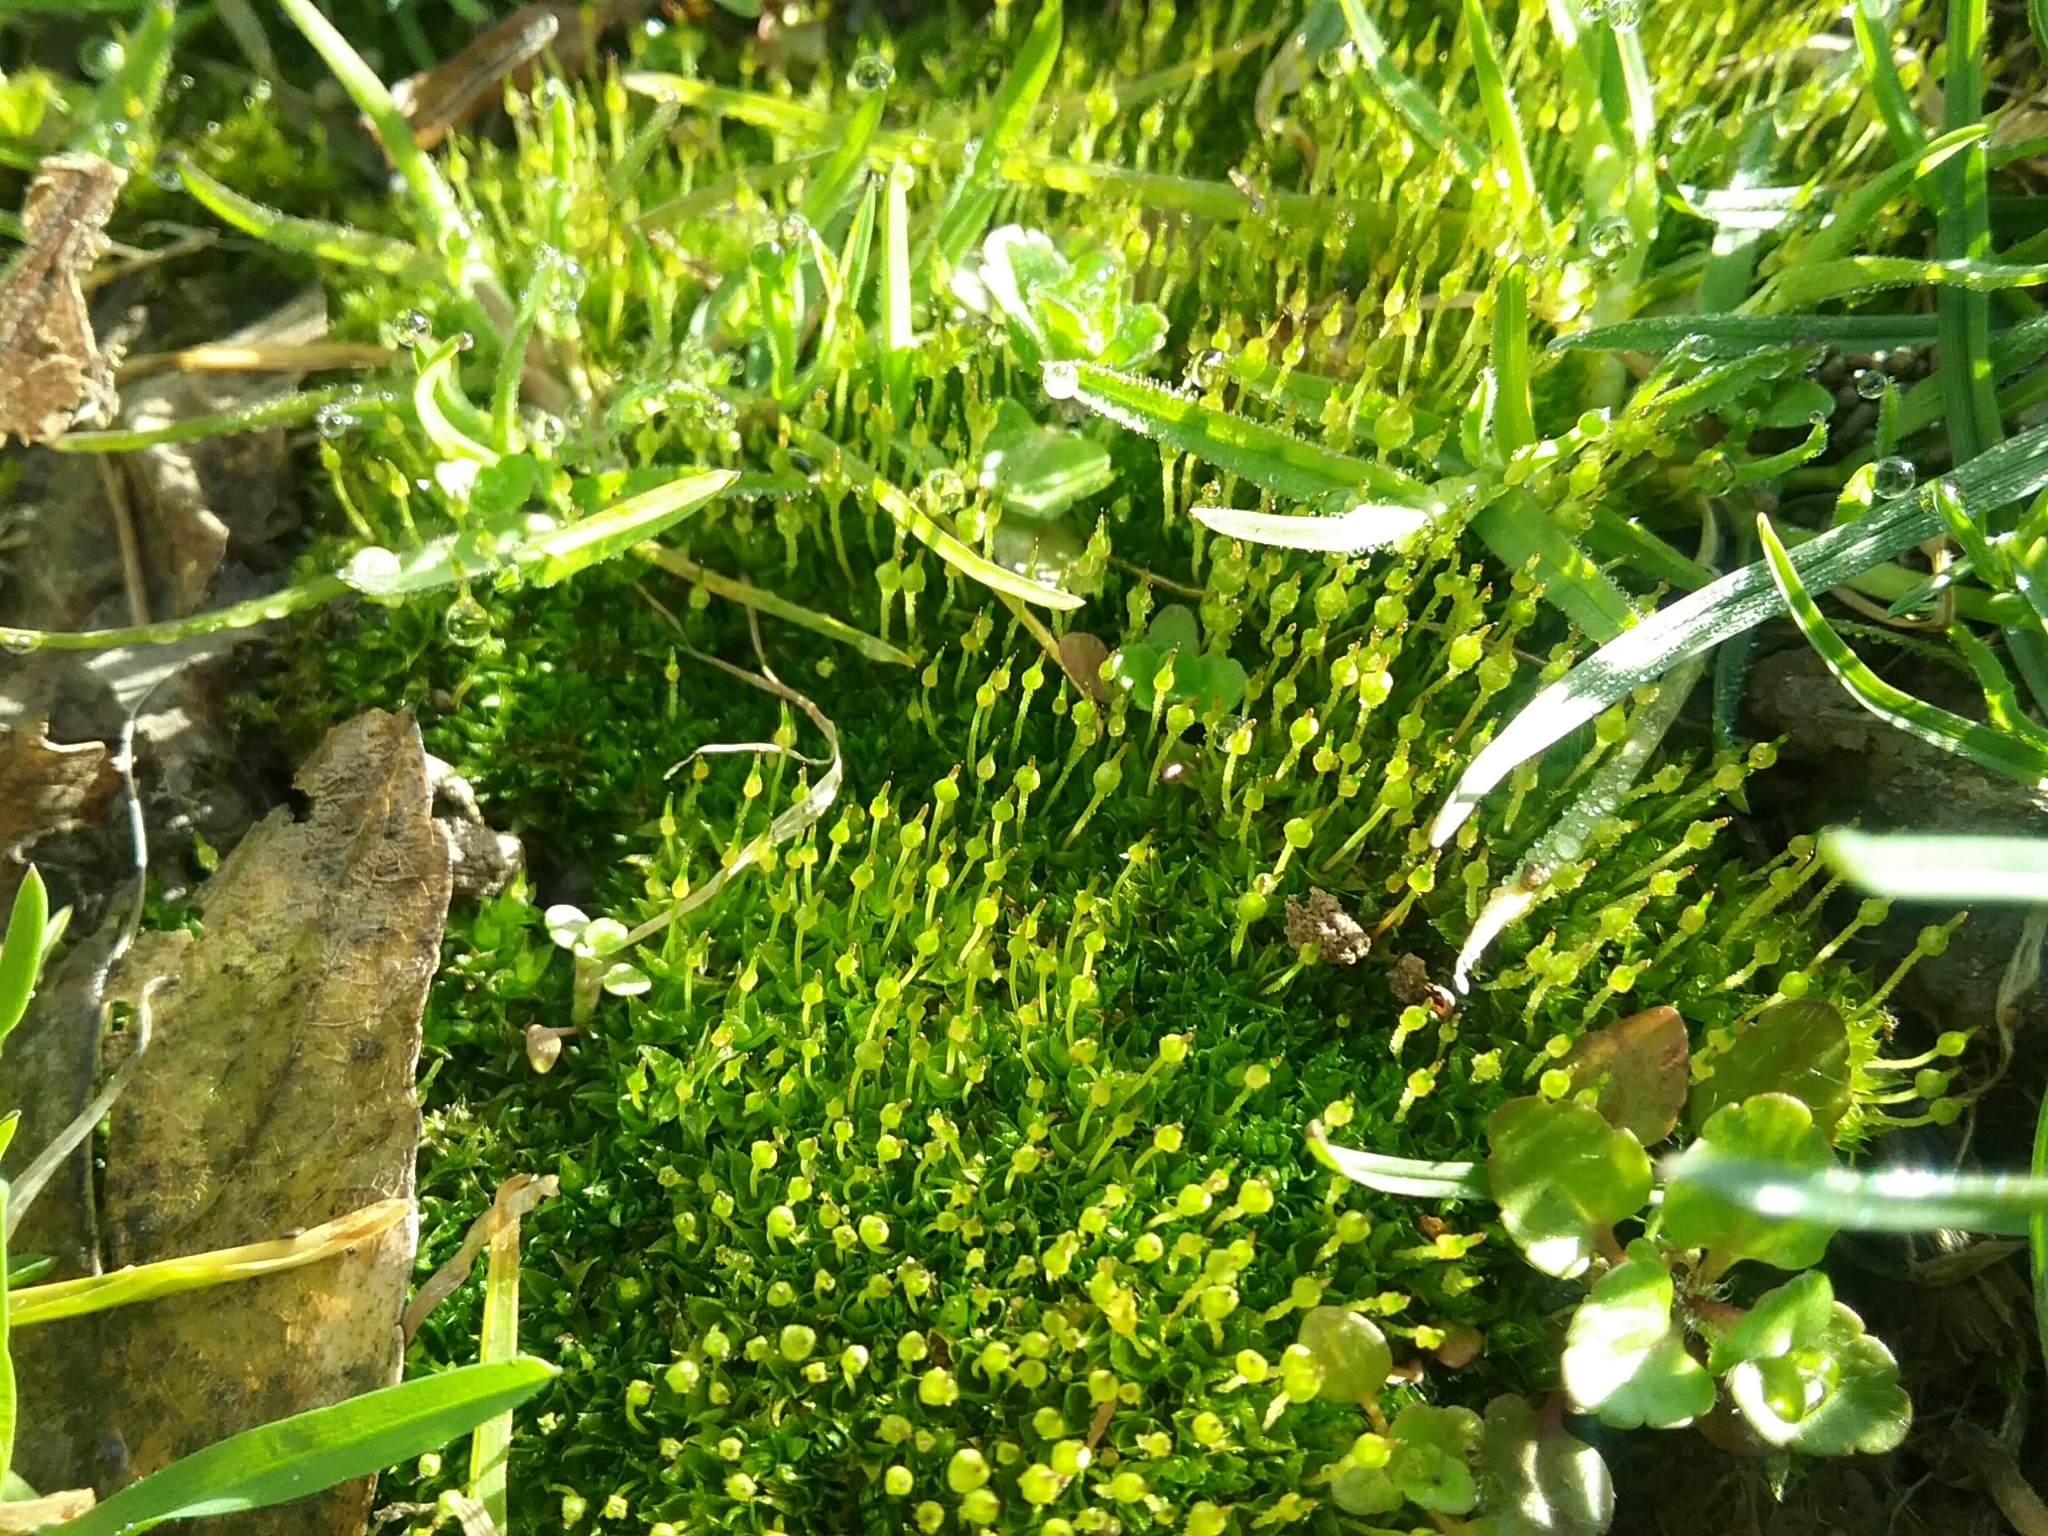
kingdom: Plantae
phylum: Bryophyta
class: Bryopsida
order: Funariales
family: Funariaceae
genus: Physcomitrium
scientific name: Physcomitrium pyriforme
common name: Common bladder-moss
